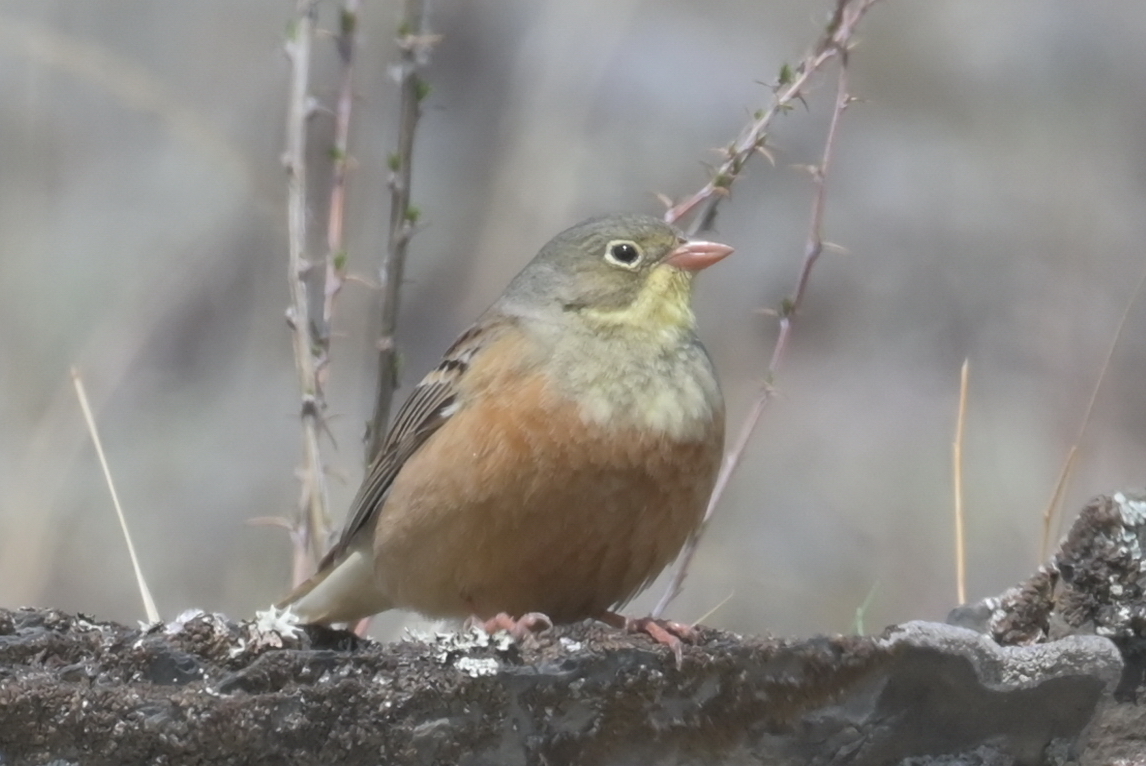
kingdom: Animalia
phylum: Chordata
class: Aves
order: Passeriformes
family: Emberizidae
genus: Emberiza
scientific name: Emberiza hortulana
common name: Ortolan bunting
